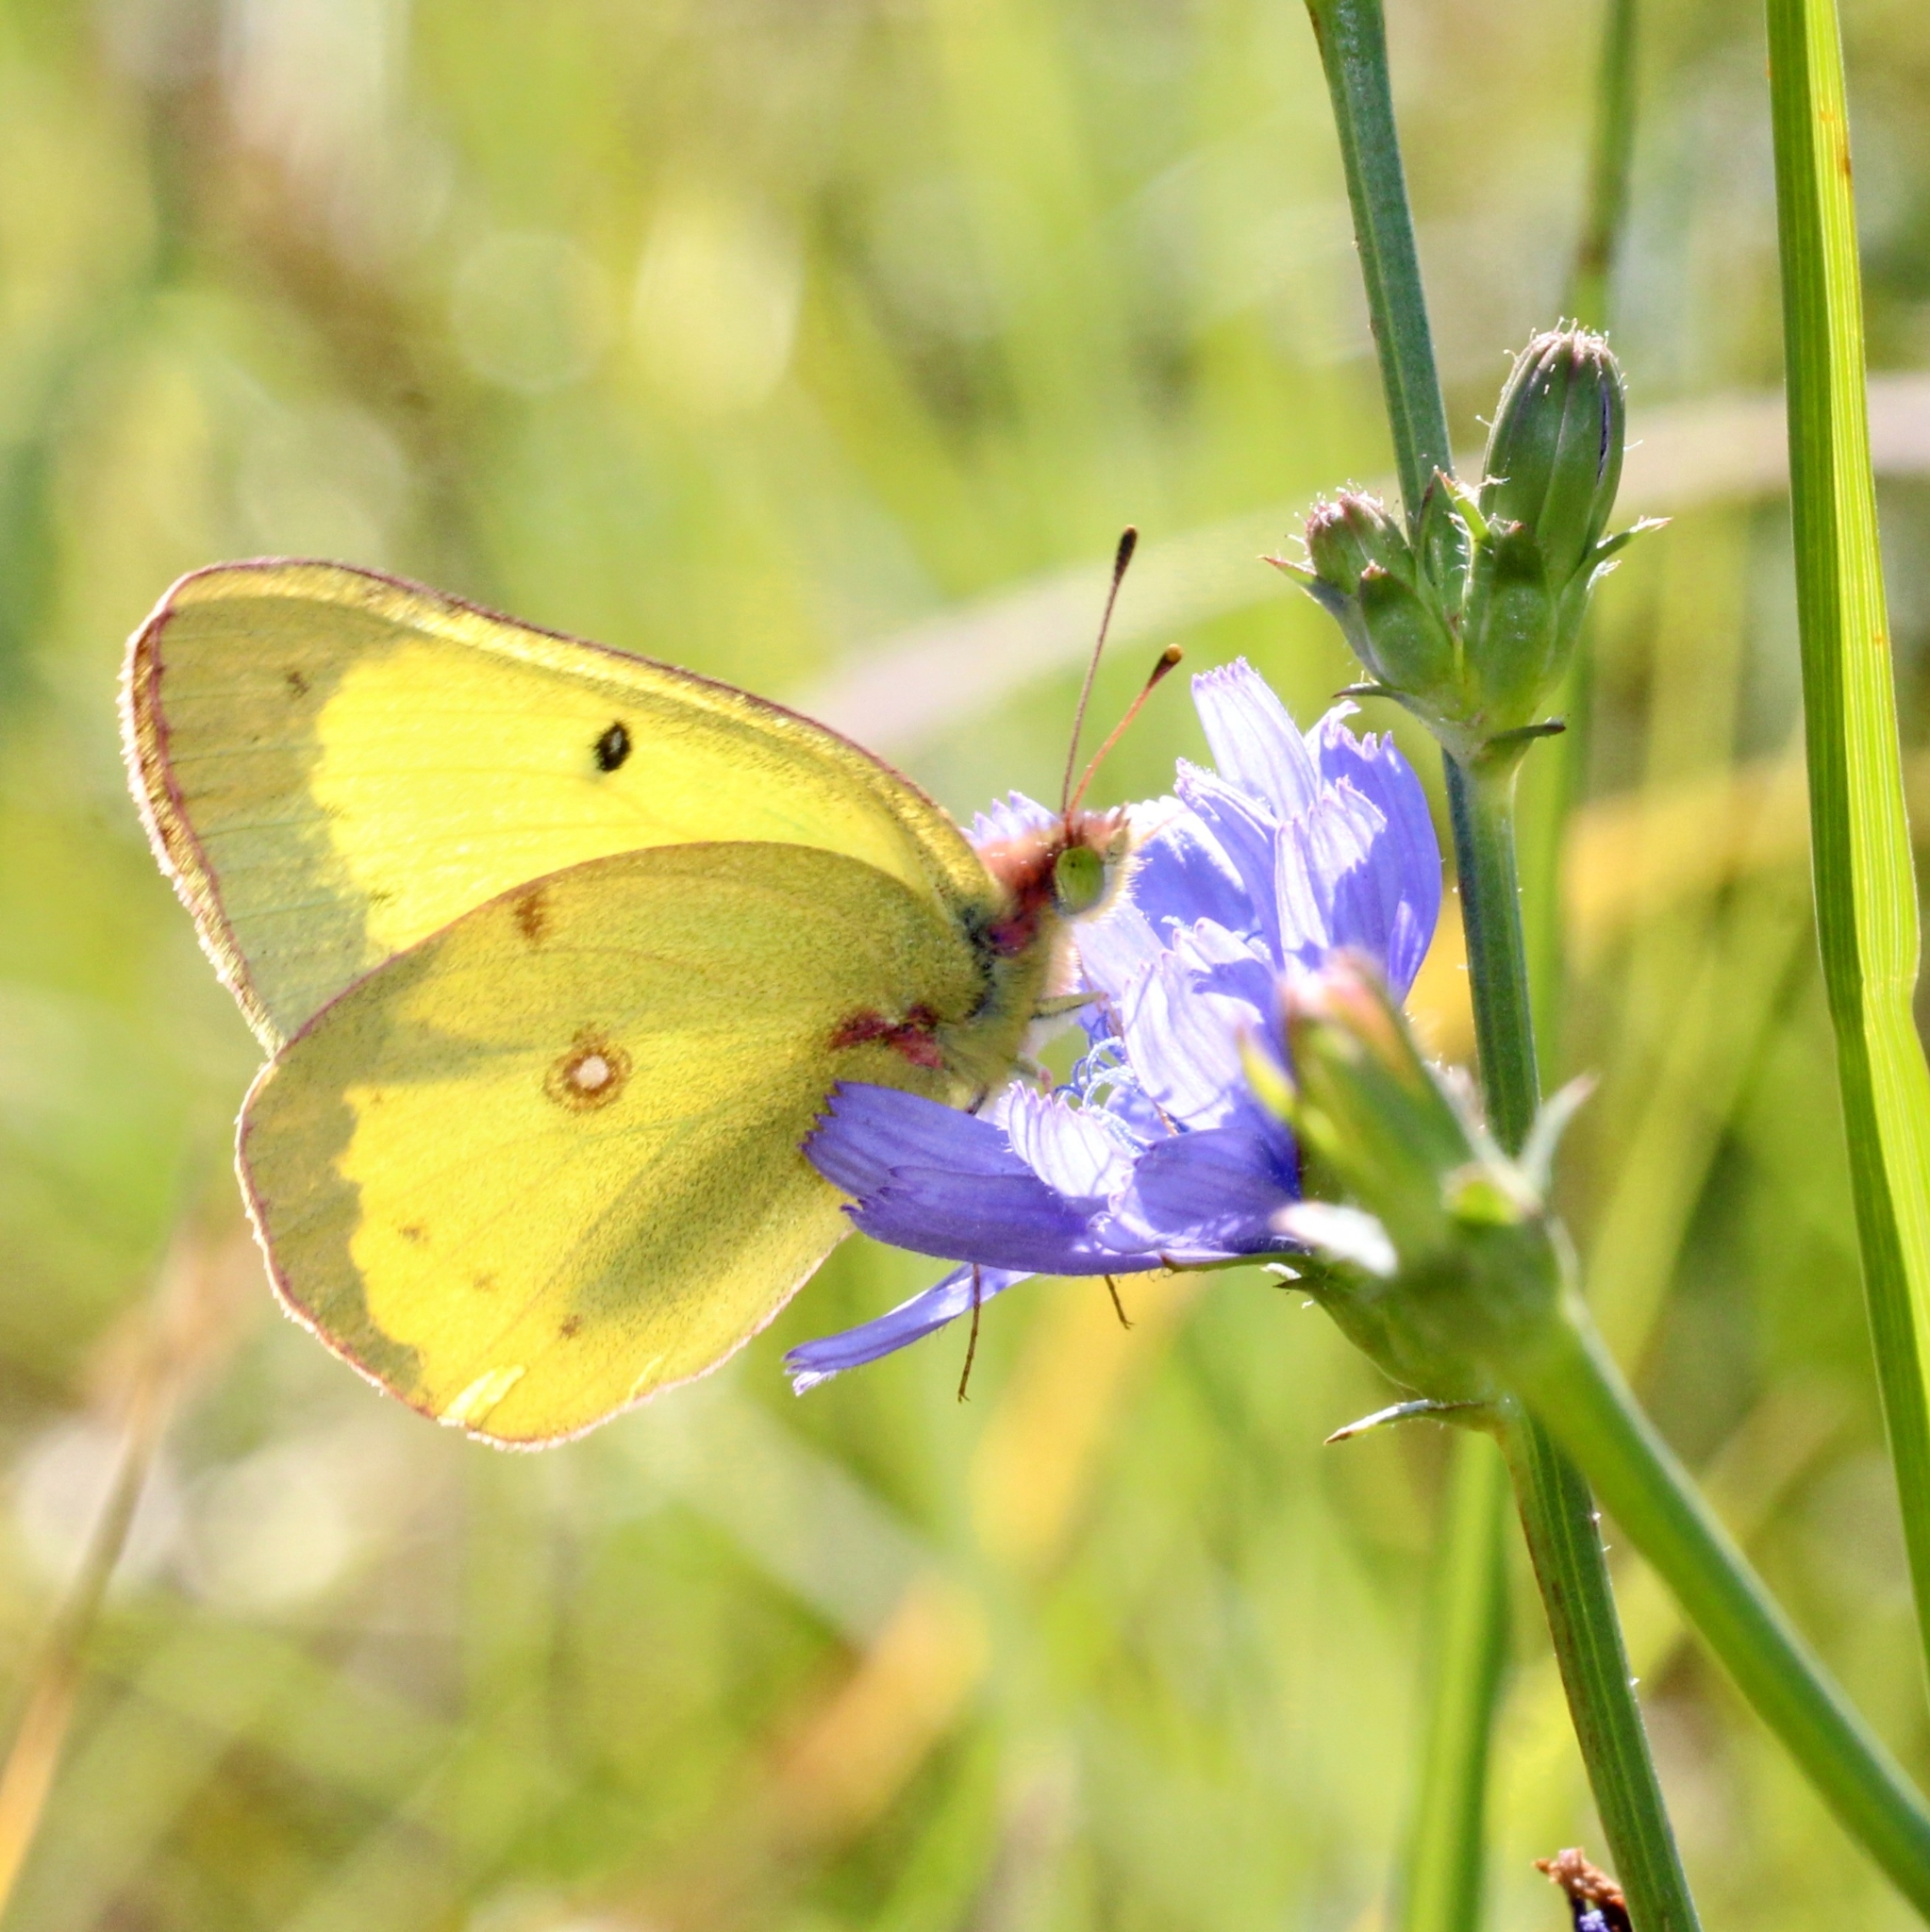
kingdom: Animalia
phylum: Arthropoda
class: Insecta
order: Lepidoptera
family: Pieridae
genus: Colias
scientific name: Colias philodice
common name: Clouded sulphur
